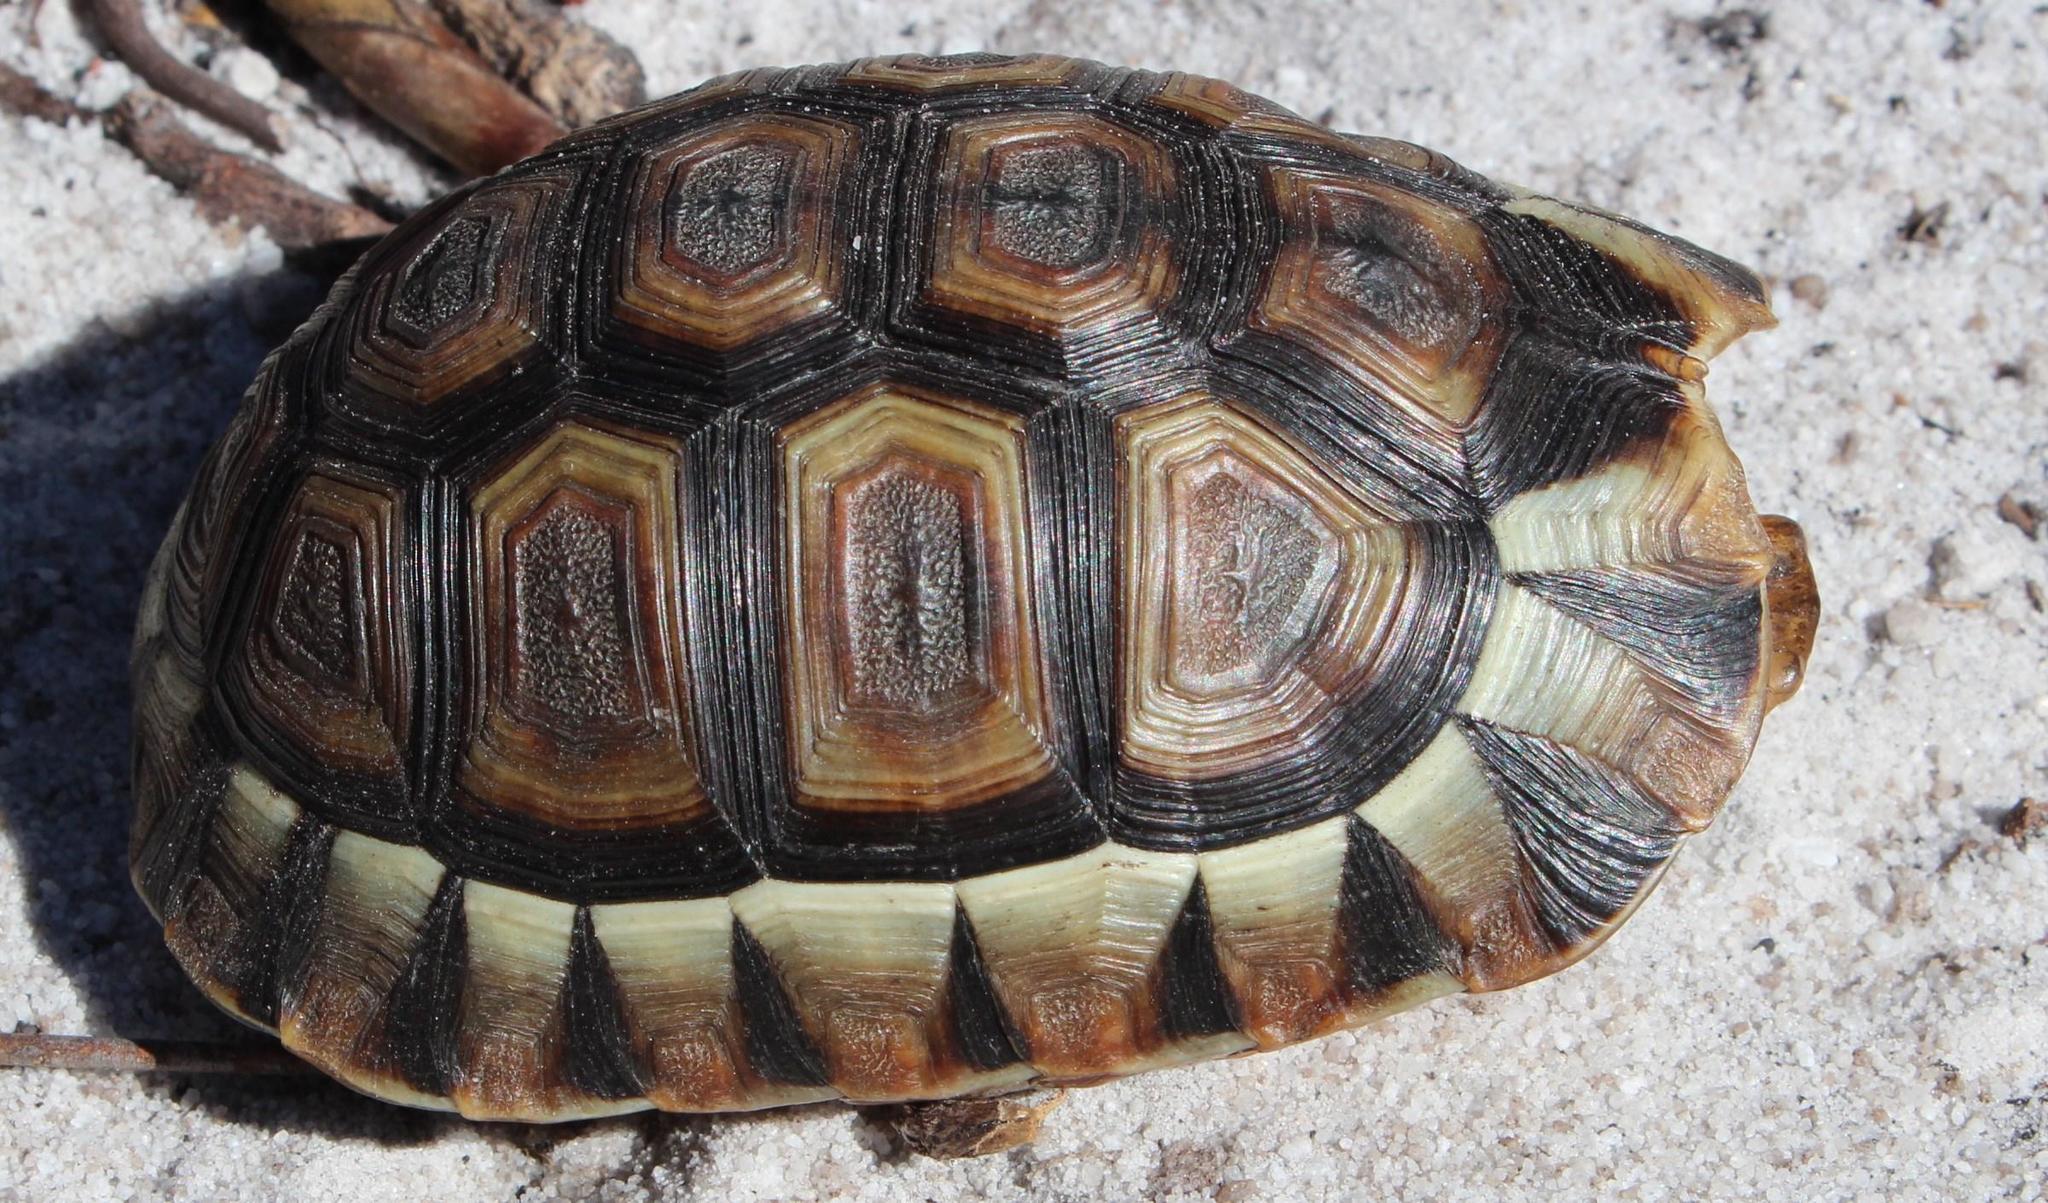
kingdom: Animalia
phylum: Chordata
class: Testudines
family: Testudinidae
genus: Chersina
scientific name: Chersina angulata
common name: South african bowsprit tortoise
